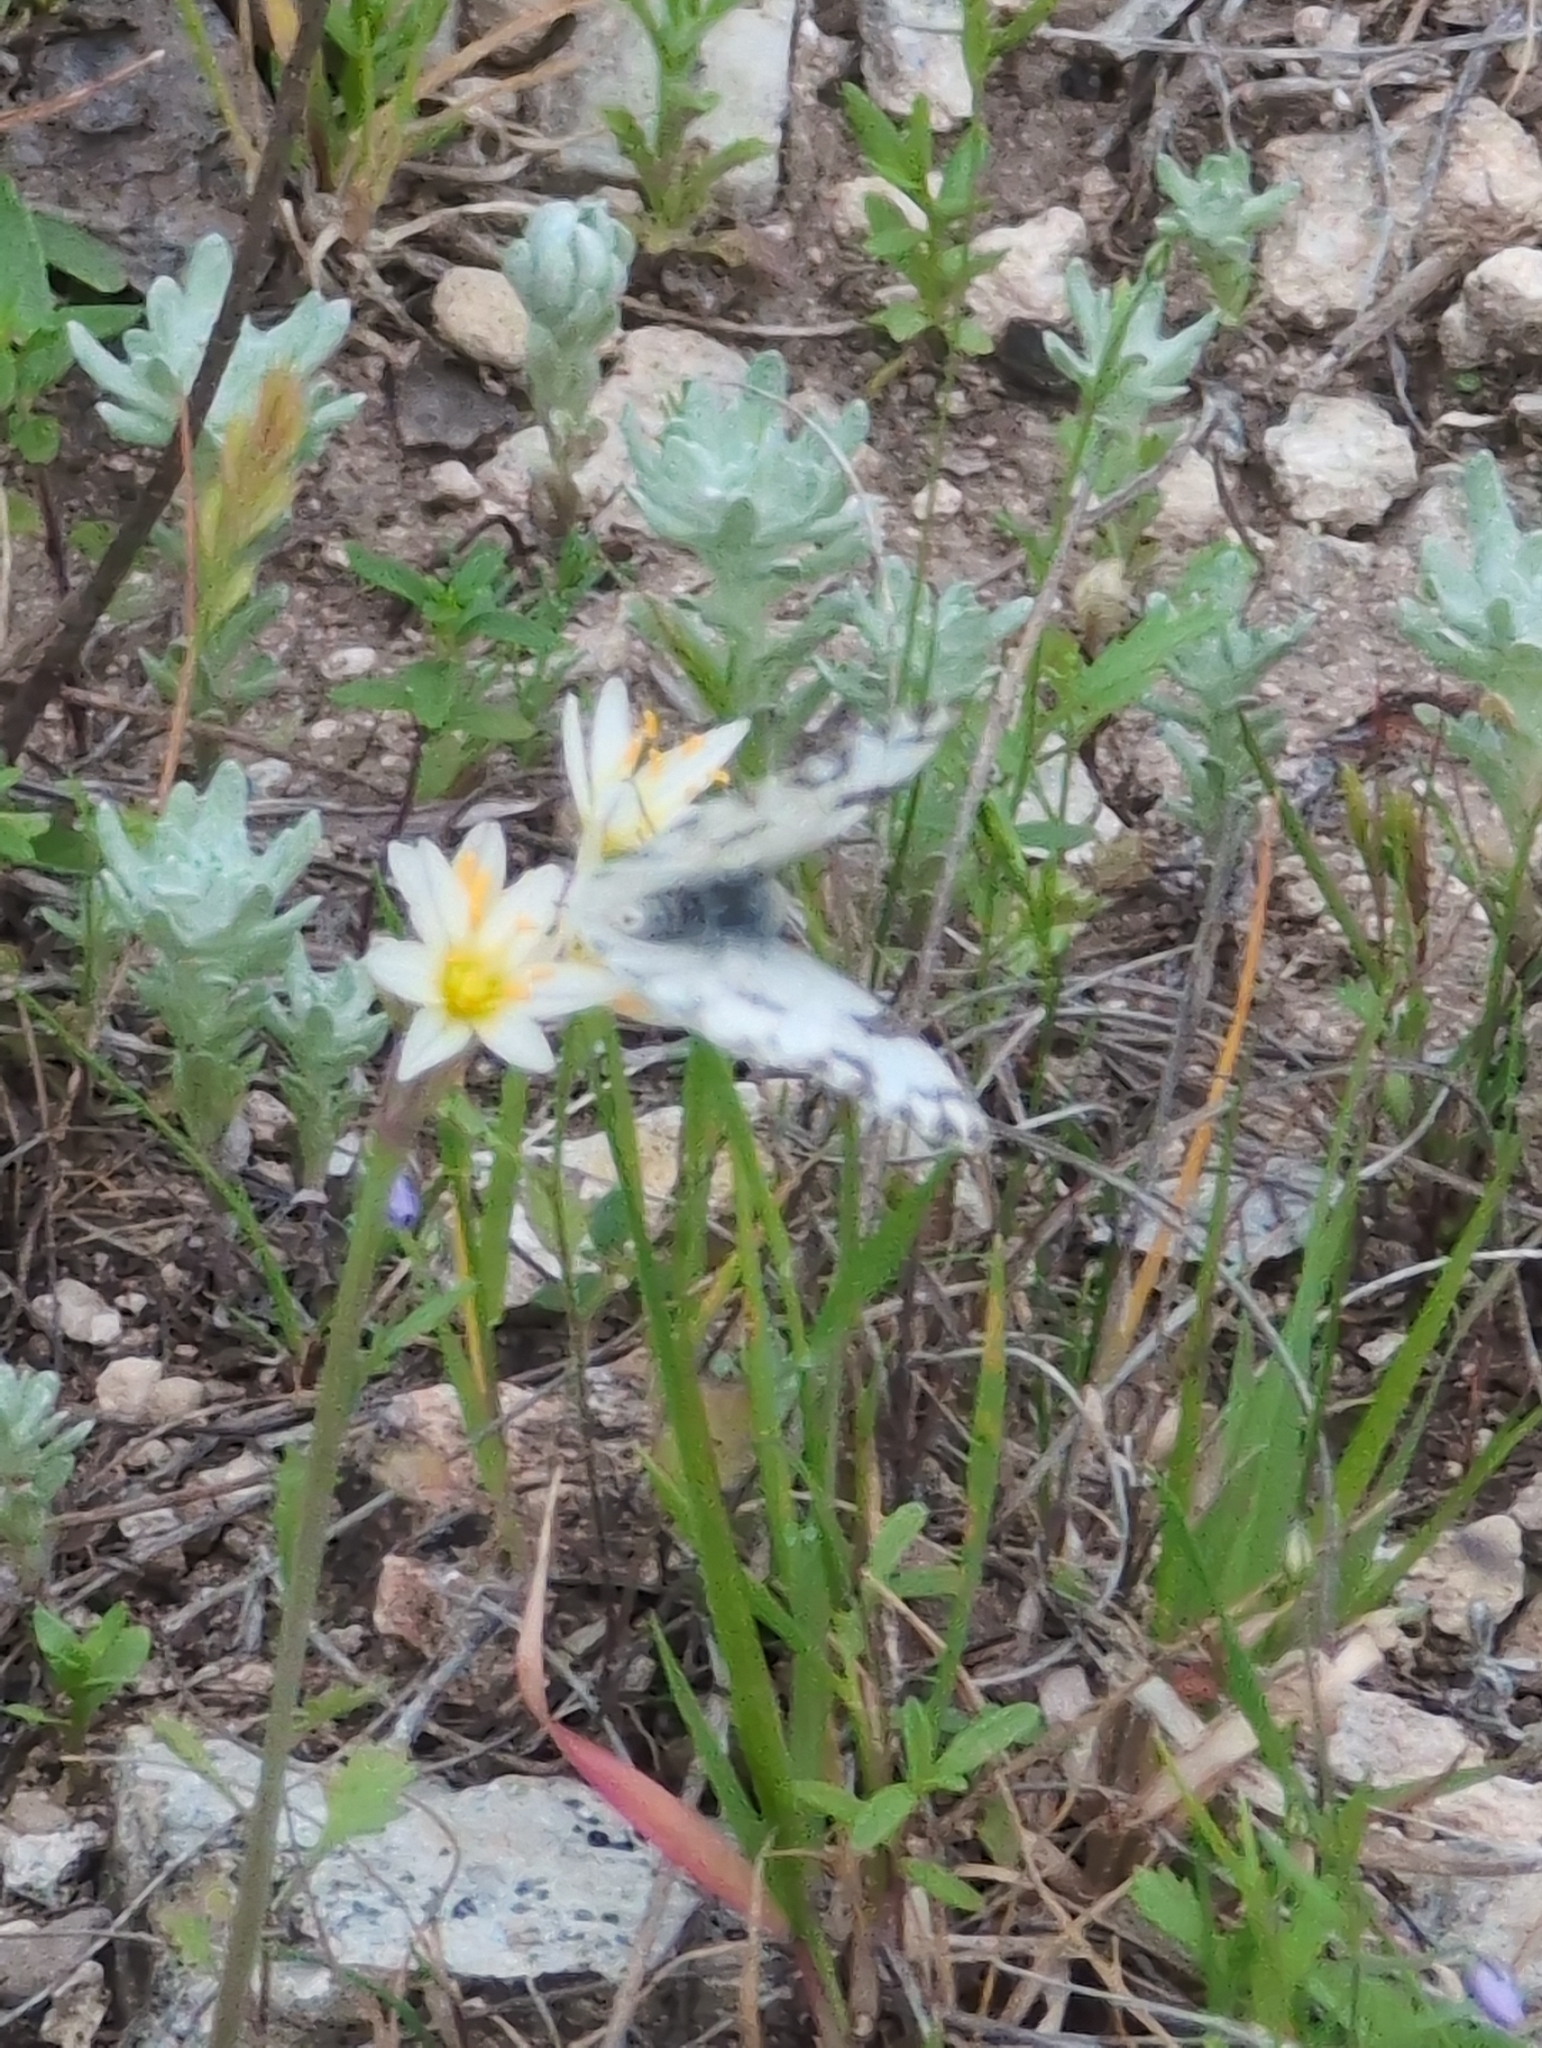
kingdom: Animalia
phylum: Arthropoda
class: Insecta
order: Lepidoptera
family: Pieridae
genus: Pontia
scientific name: Pontia protodice
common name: Checkered white
